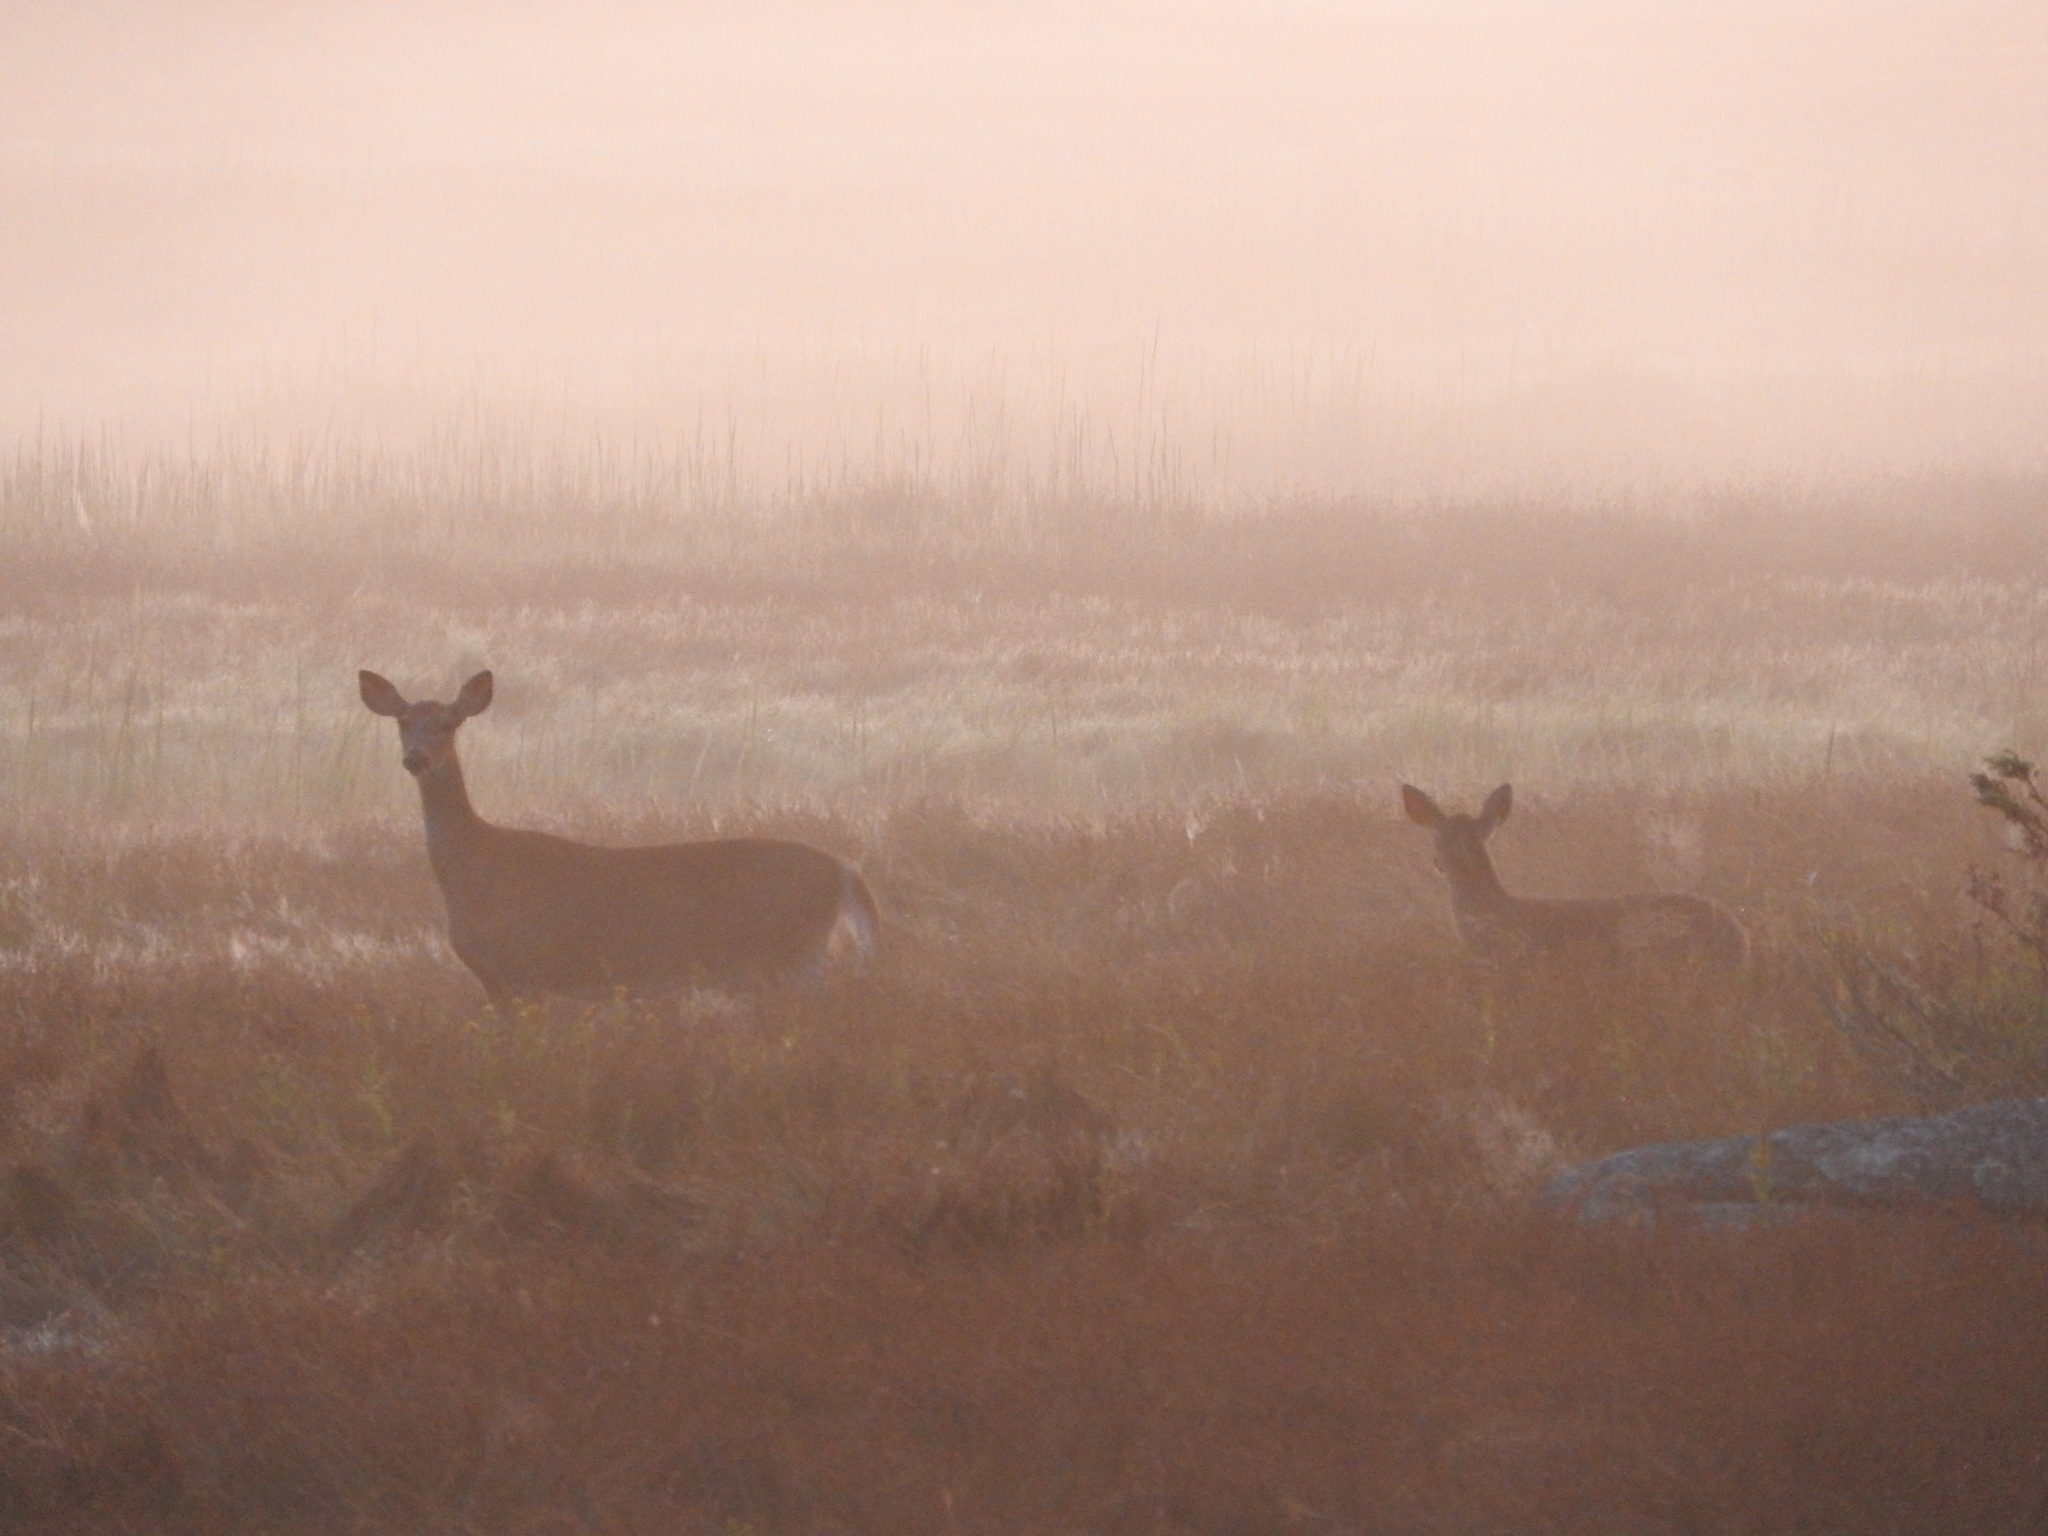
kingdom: Animalia
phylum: Chordata
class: Mammalia
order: Artiodactyla
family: Cervidae
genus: Odocoileus
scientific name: Odocoileus virginianus
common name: White-tailed deer
